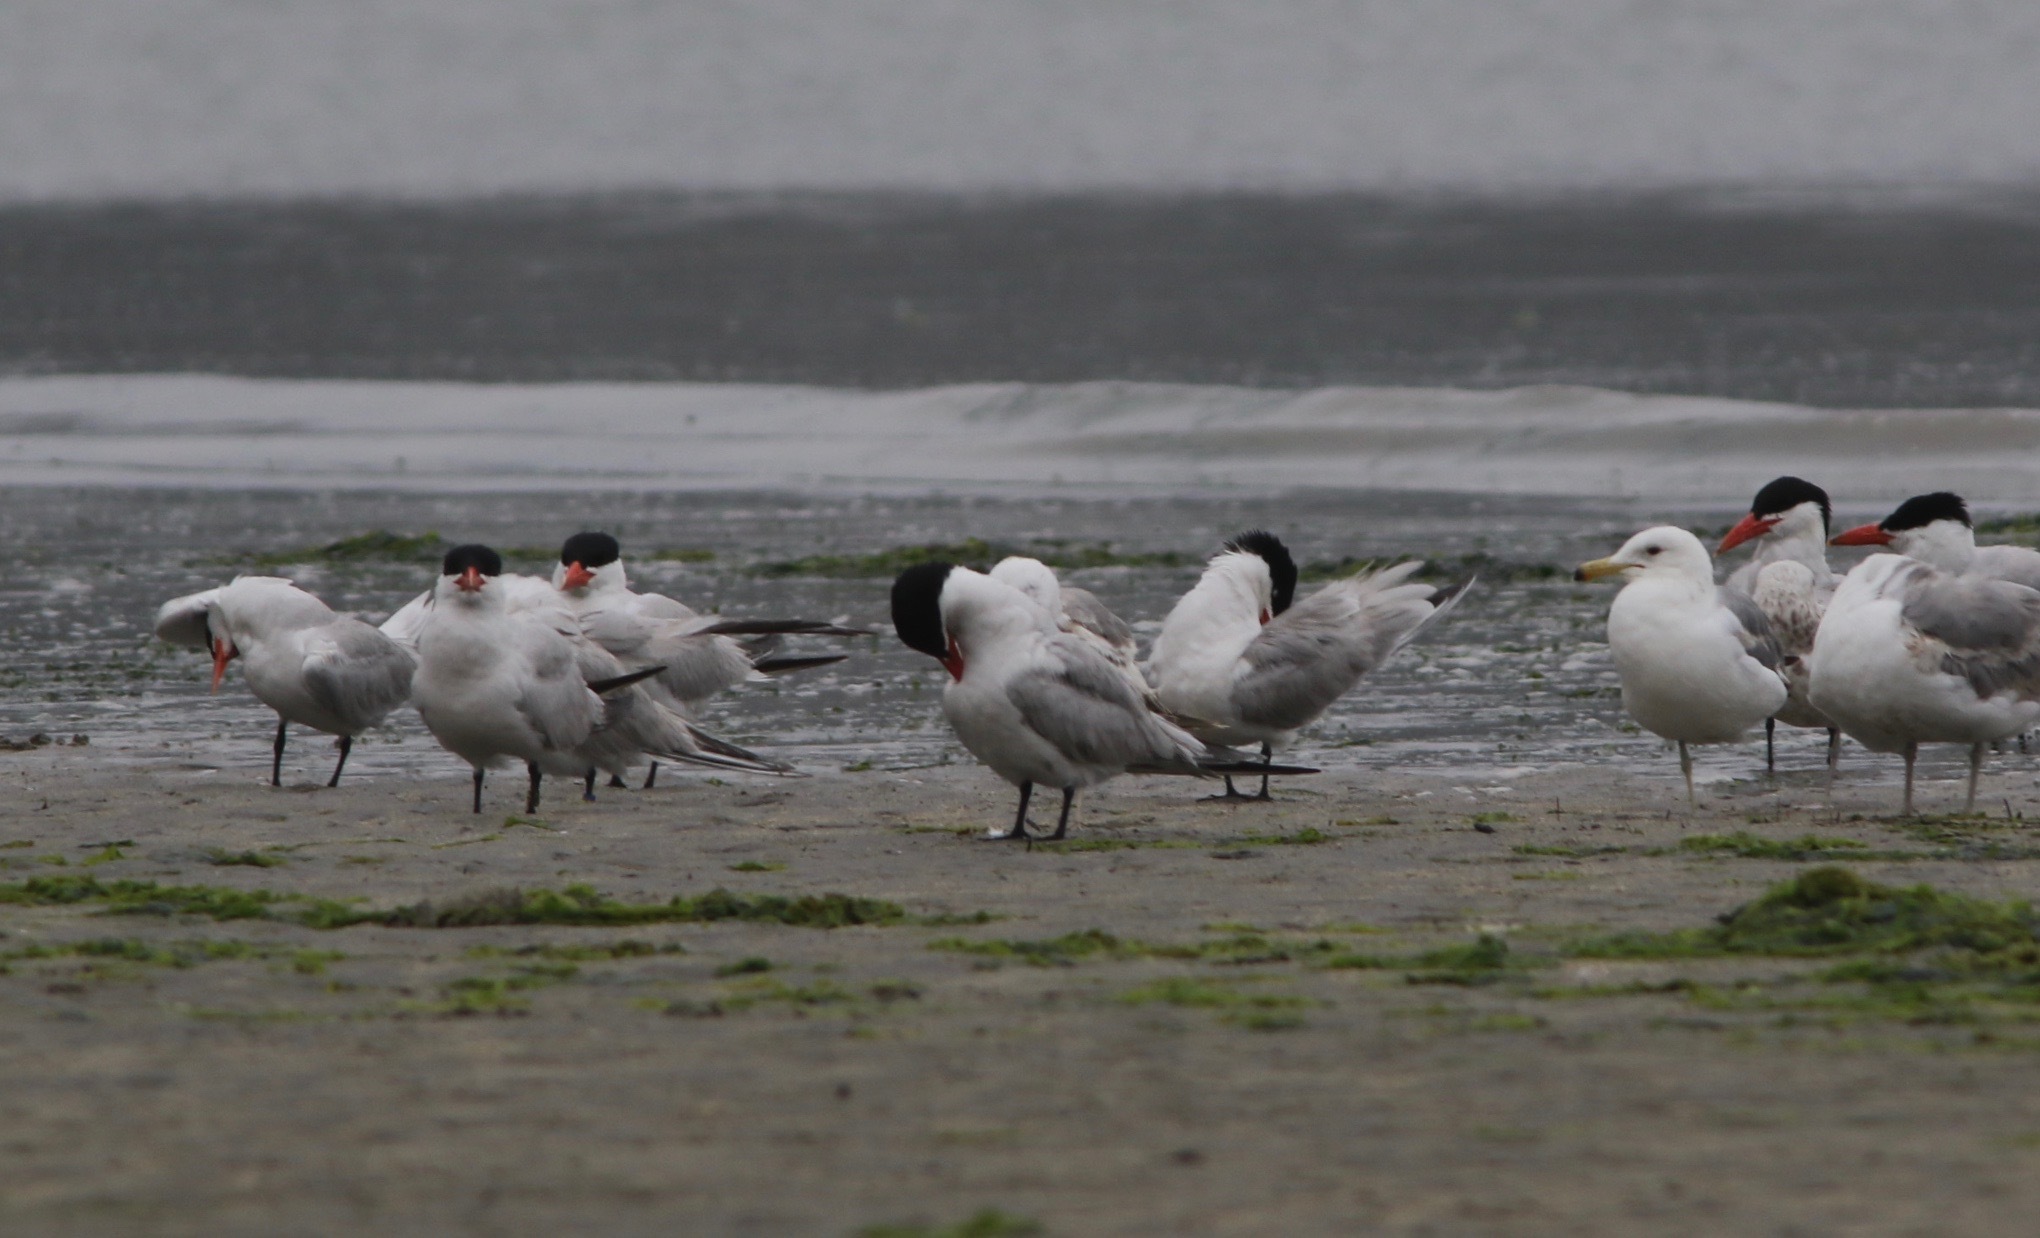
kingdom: Animalia
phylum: Chordata
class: Aves
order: Charadriiformes
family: Laridae
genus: Hydroprogne
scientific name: Hydroprogne caspia
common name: Caspian tern
